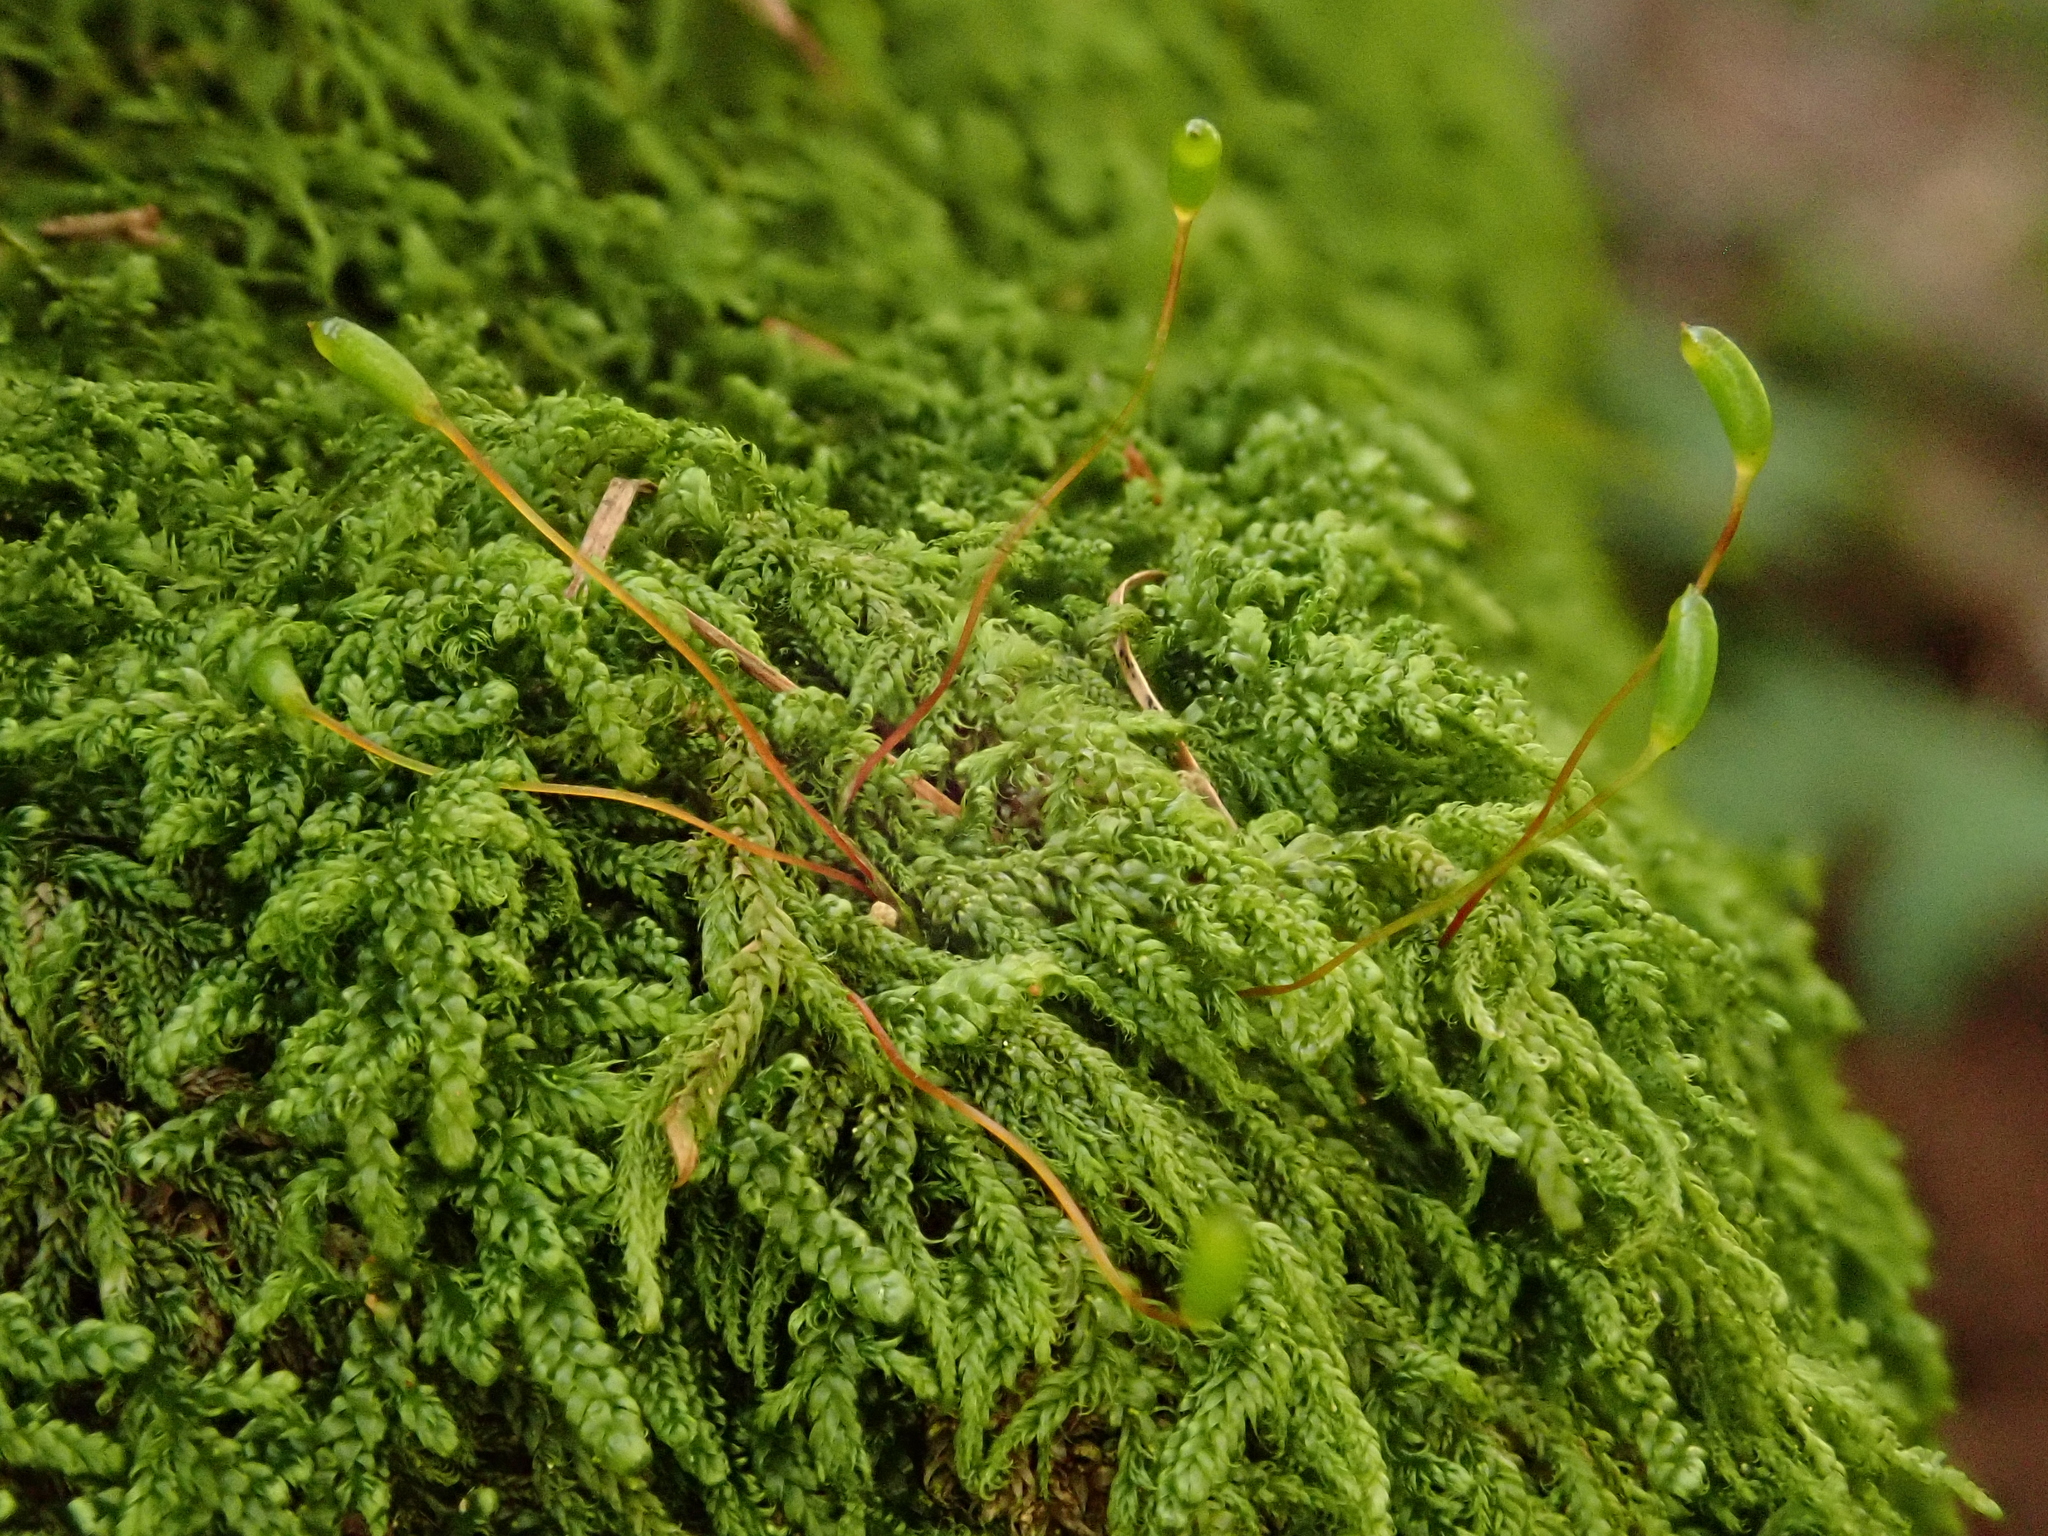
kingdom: Plantae
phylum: Bryophyta
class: Bryopsida
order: Hypnales
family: Hypnaceae
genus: Hypnum
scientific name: Hypnum andoi
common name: Ando's plait moss
